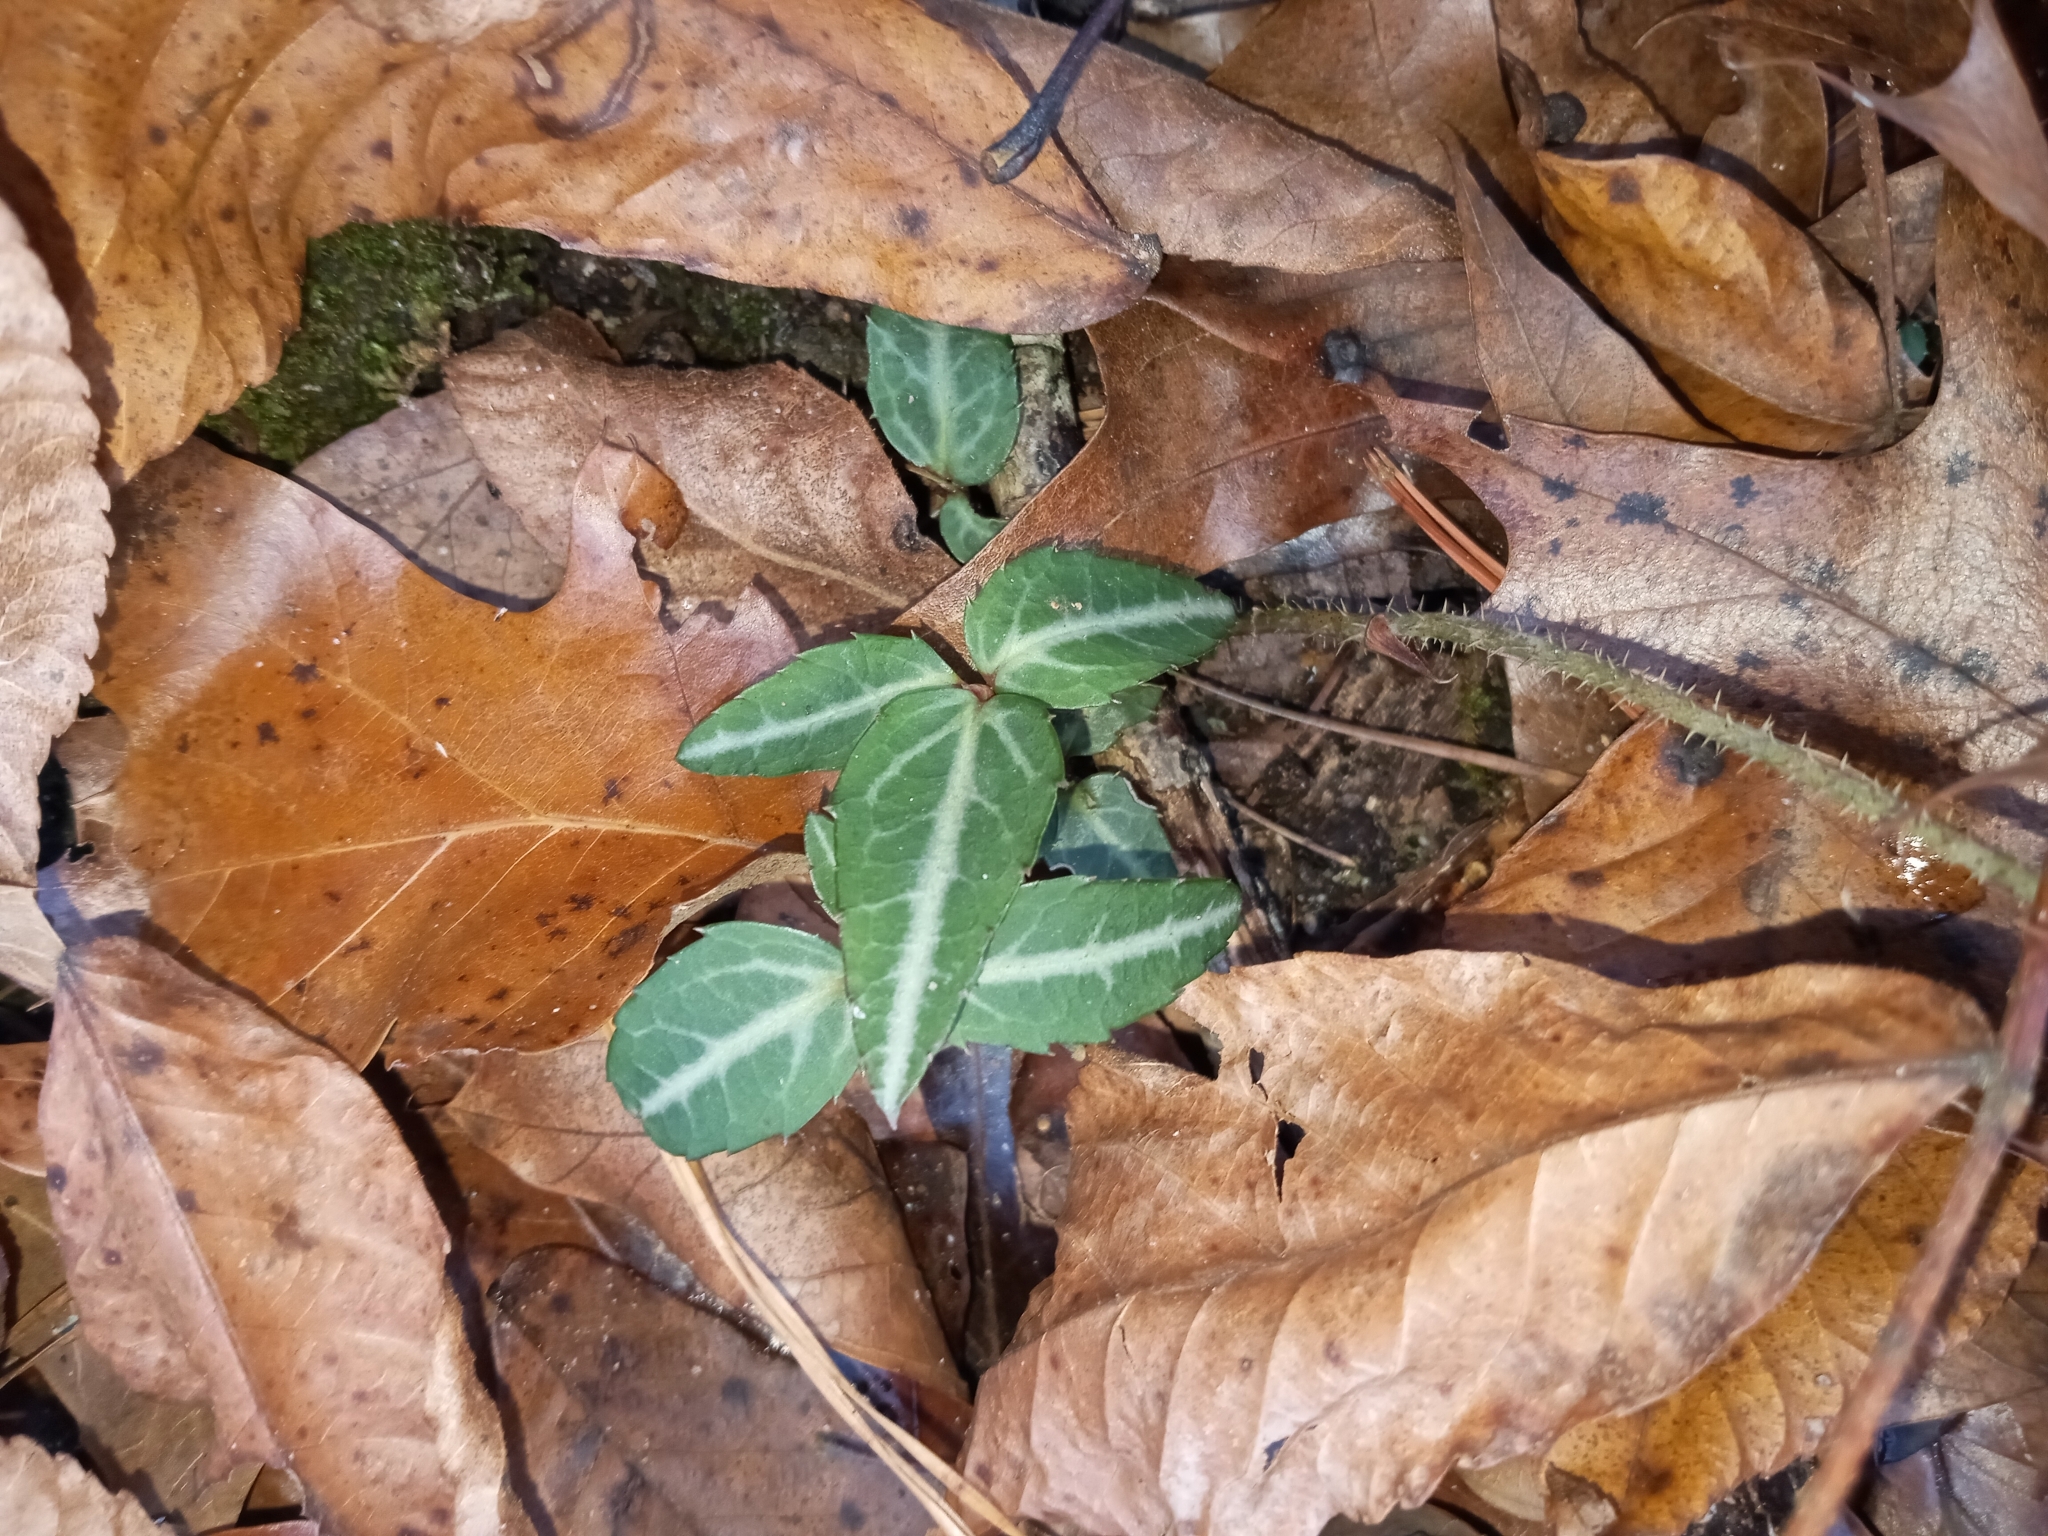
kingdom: Plantae
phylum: Tracheophyta
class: Magnoliopsida
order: Ericales
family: Ericaceae
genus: Chimaphila
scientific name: Chimaphila maculata
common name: Spotted pipsissewa
